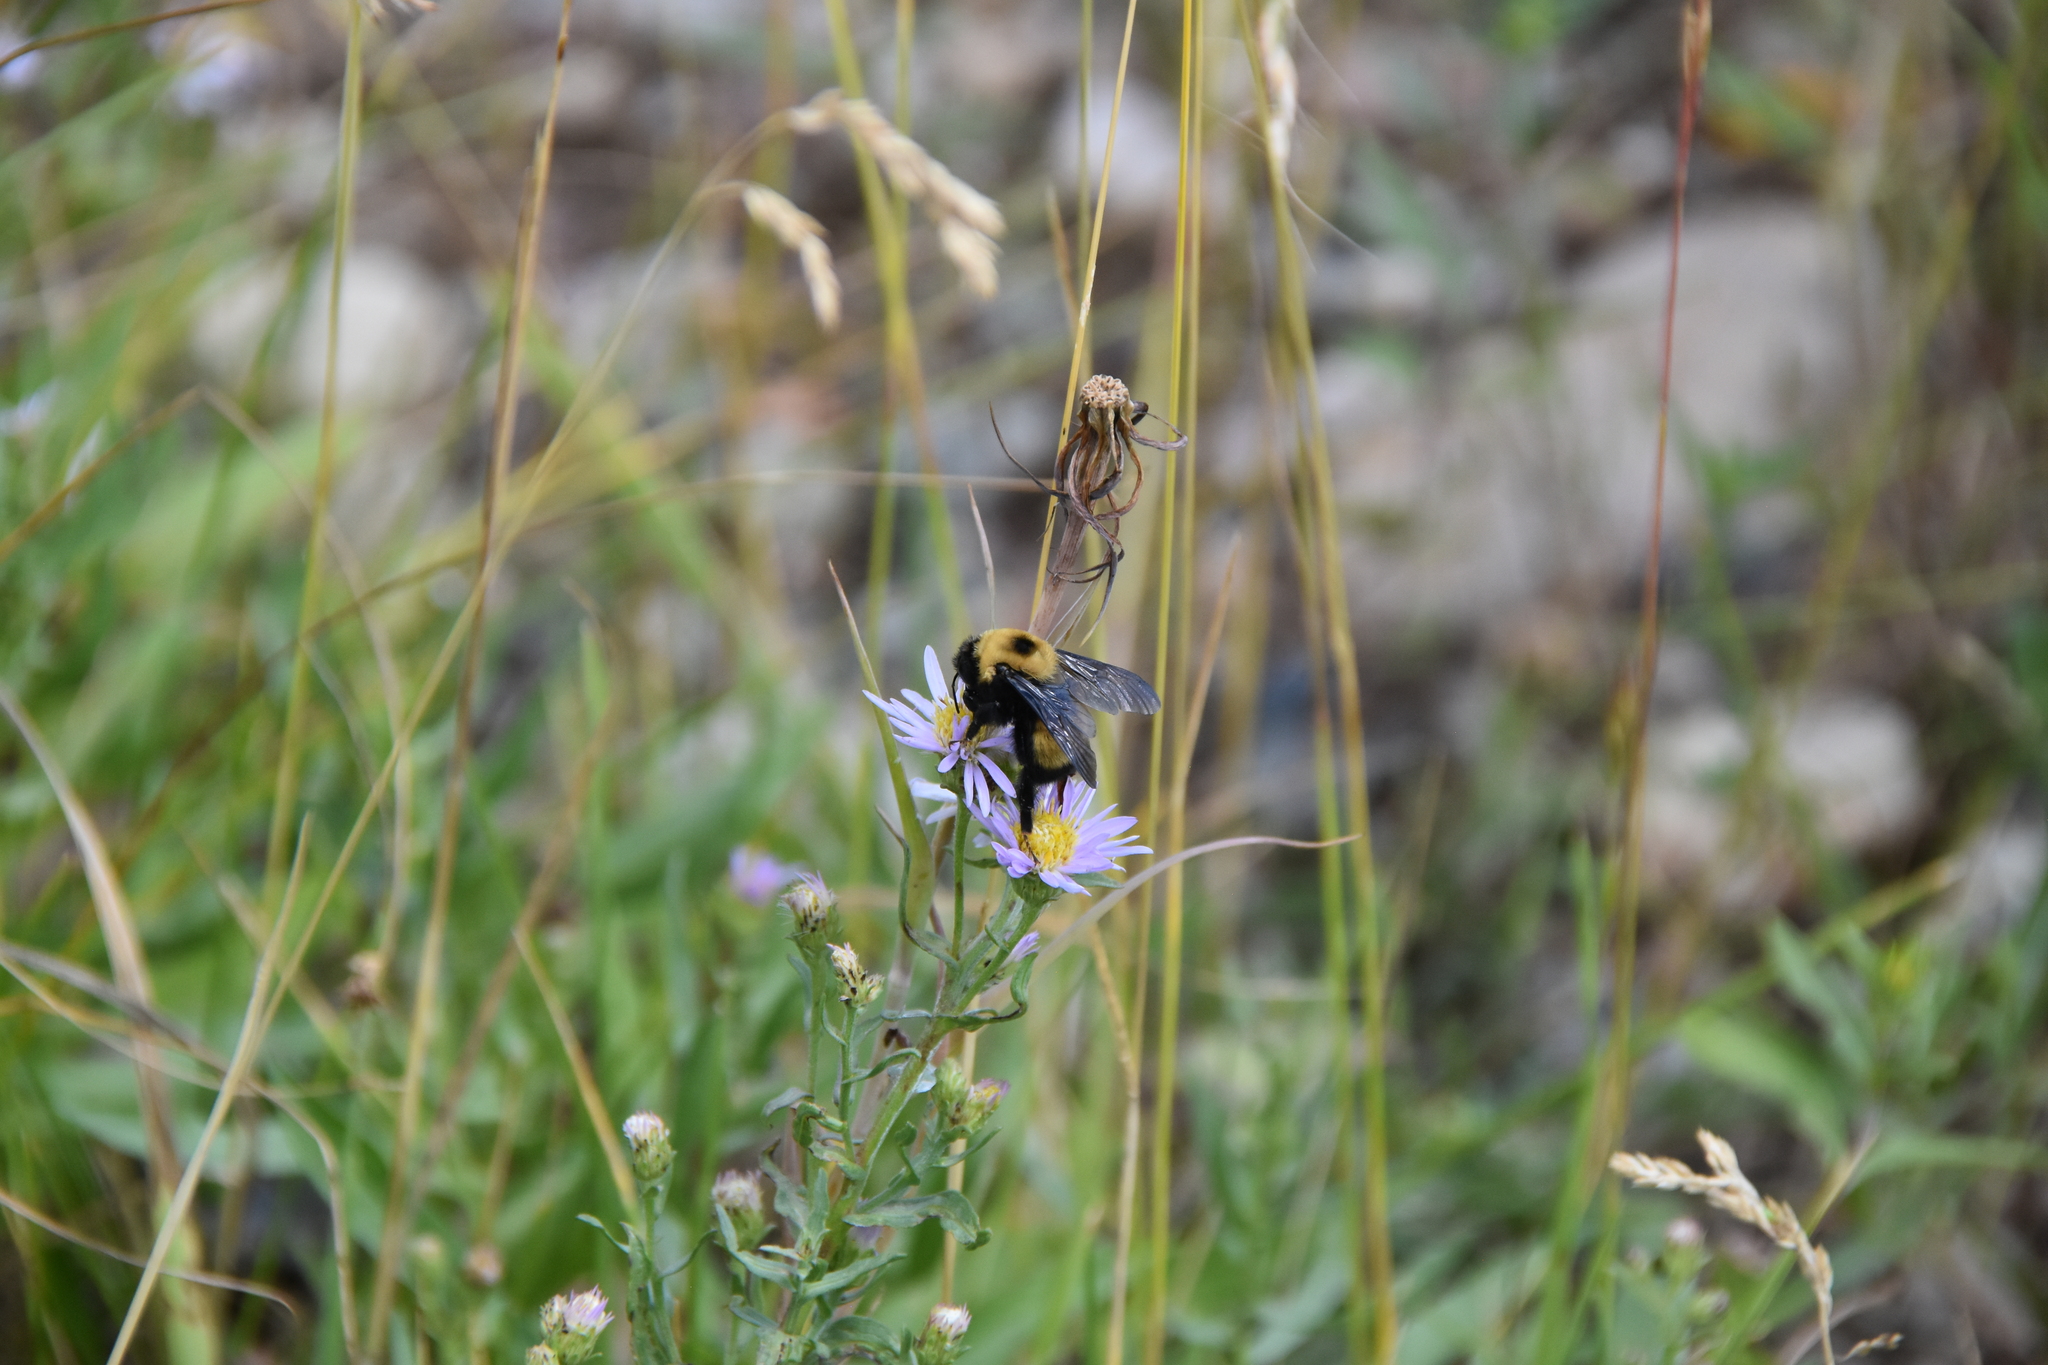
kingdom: Animalia
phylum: Arthropoda
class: Insecta
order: Hymenoptera
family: Apidae
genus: Bombus
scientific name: Bombus nevadensis
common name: Nevada bumble bee
